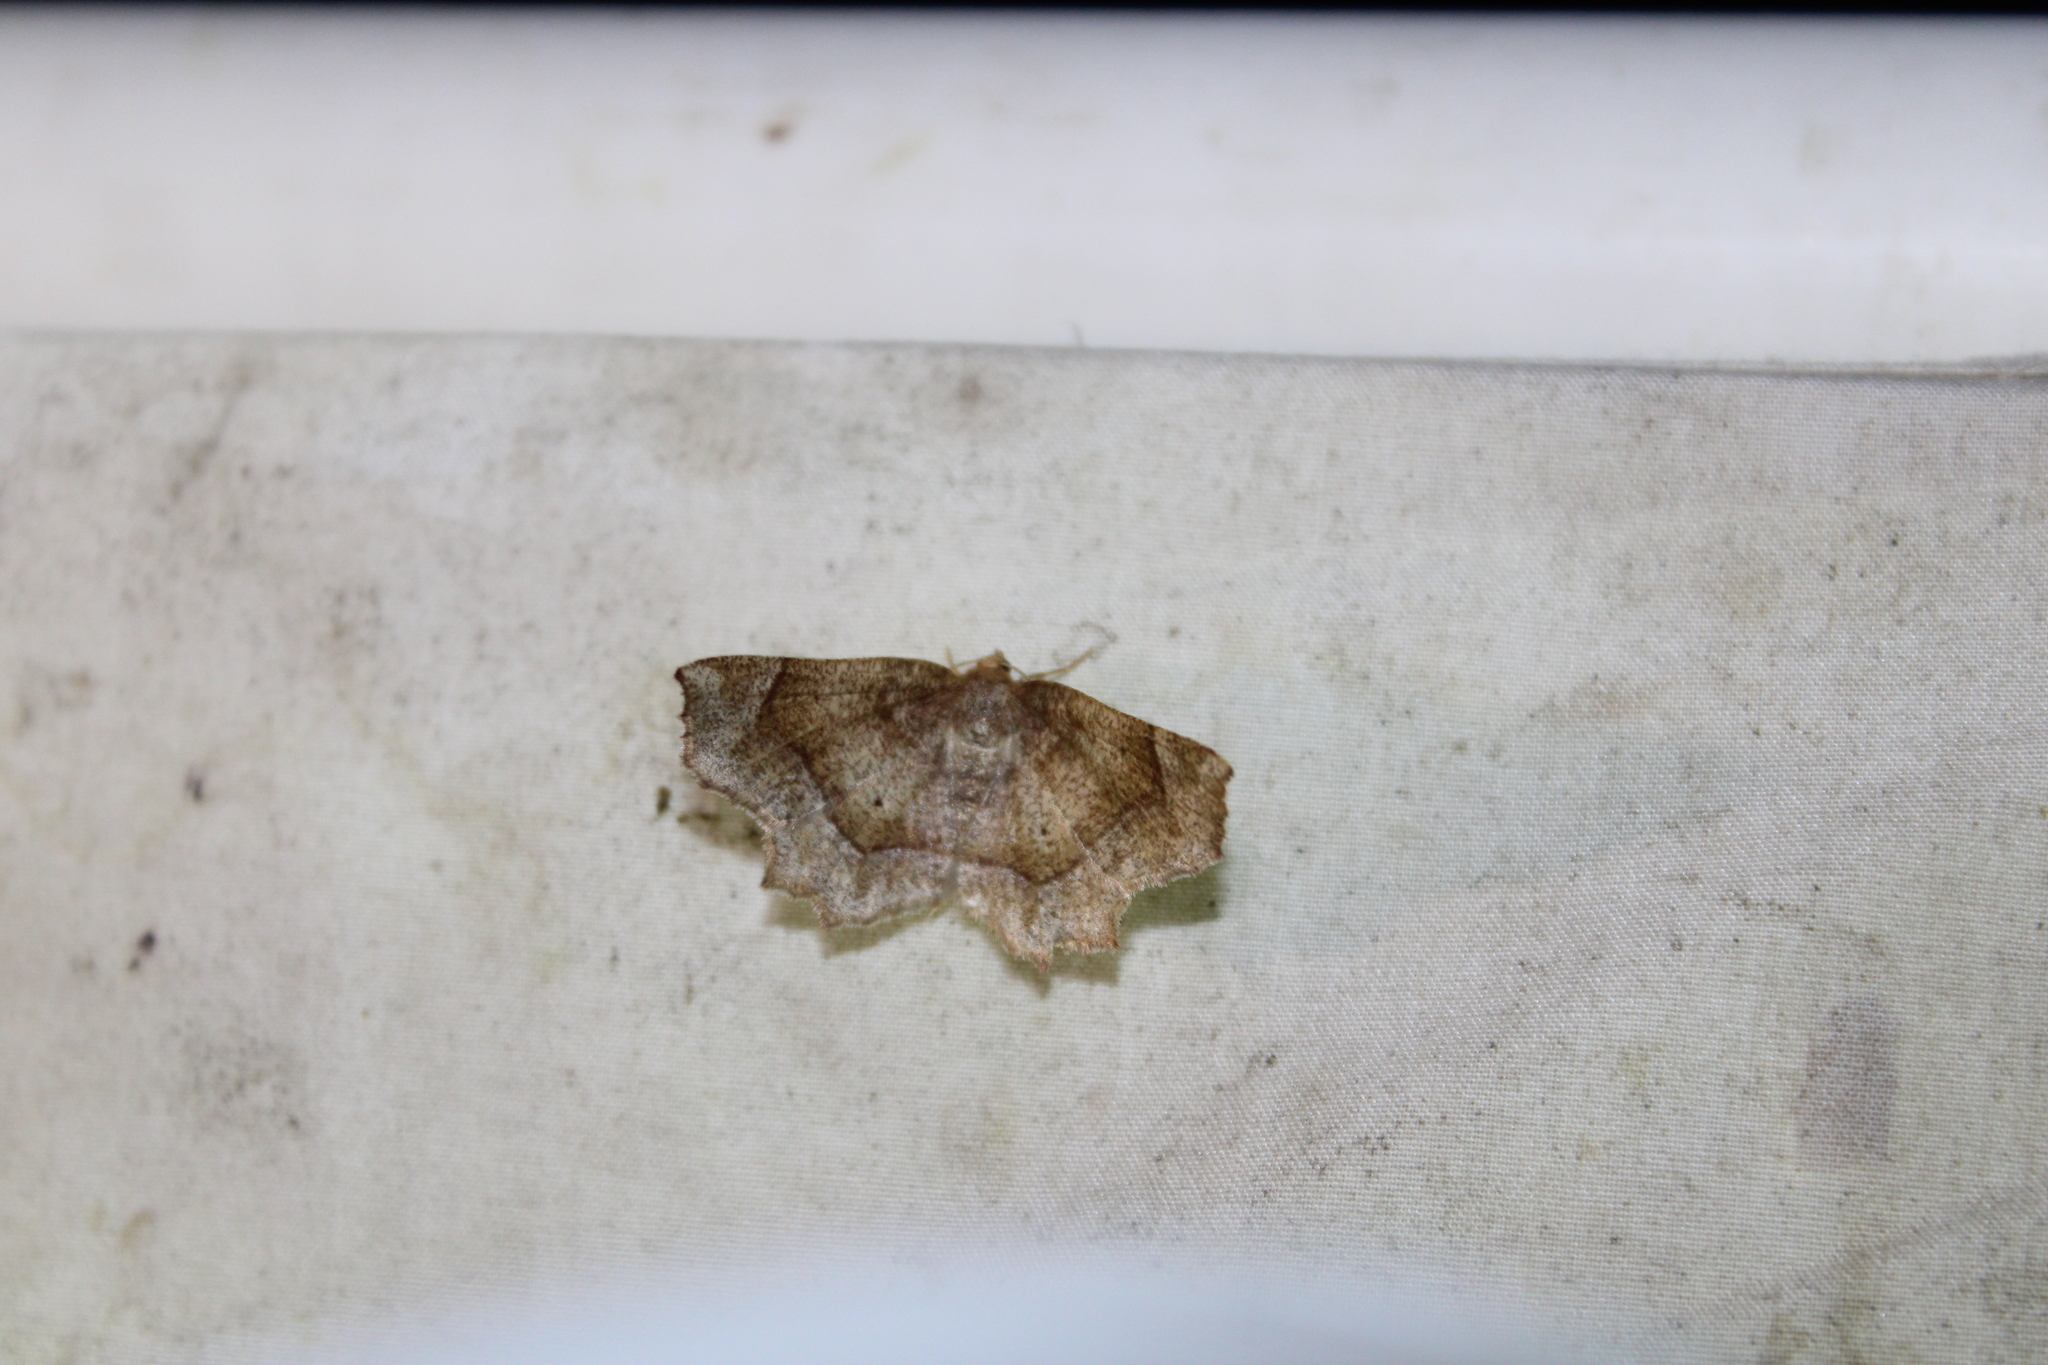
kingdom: Animalia
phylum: Arthropoda
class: Insecta
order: Lepidoptera
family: Geometridae
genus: Metarranthis
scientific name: Metarranthis hypochraria
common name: Common metarranthis
